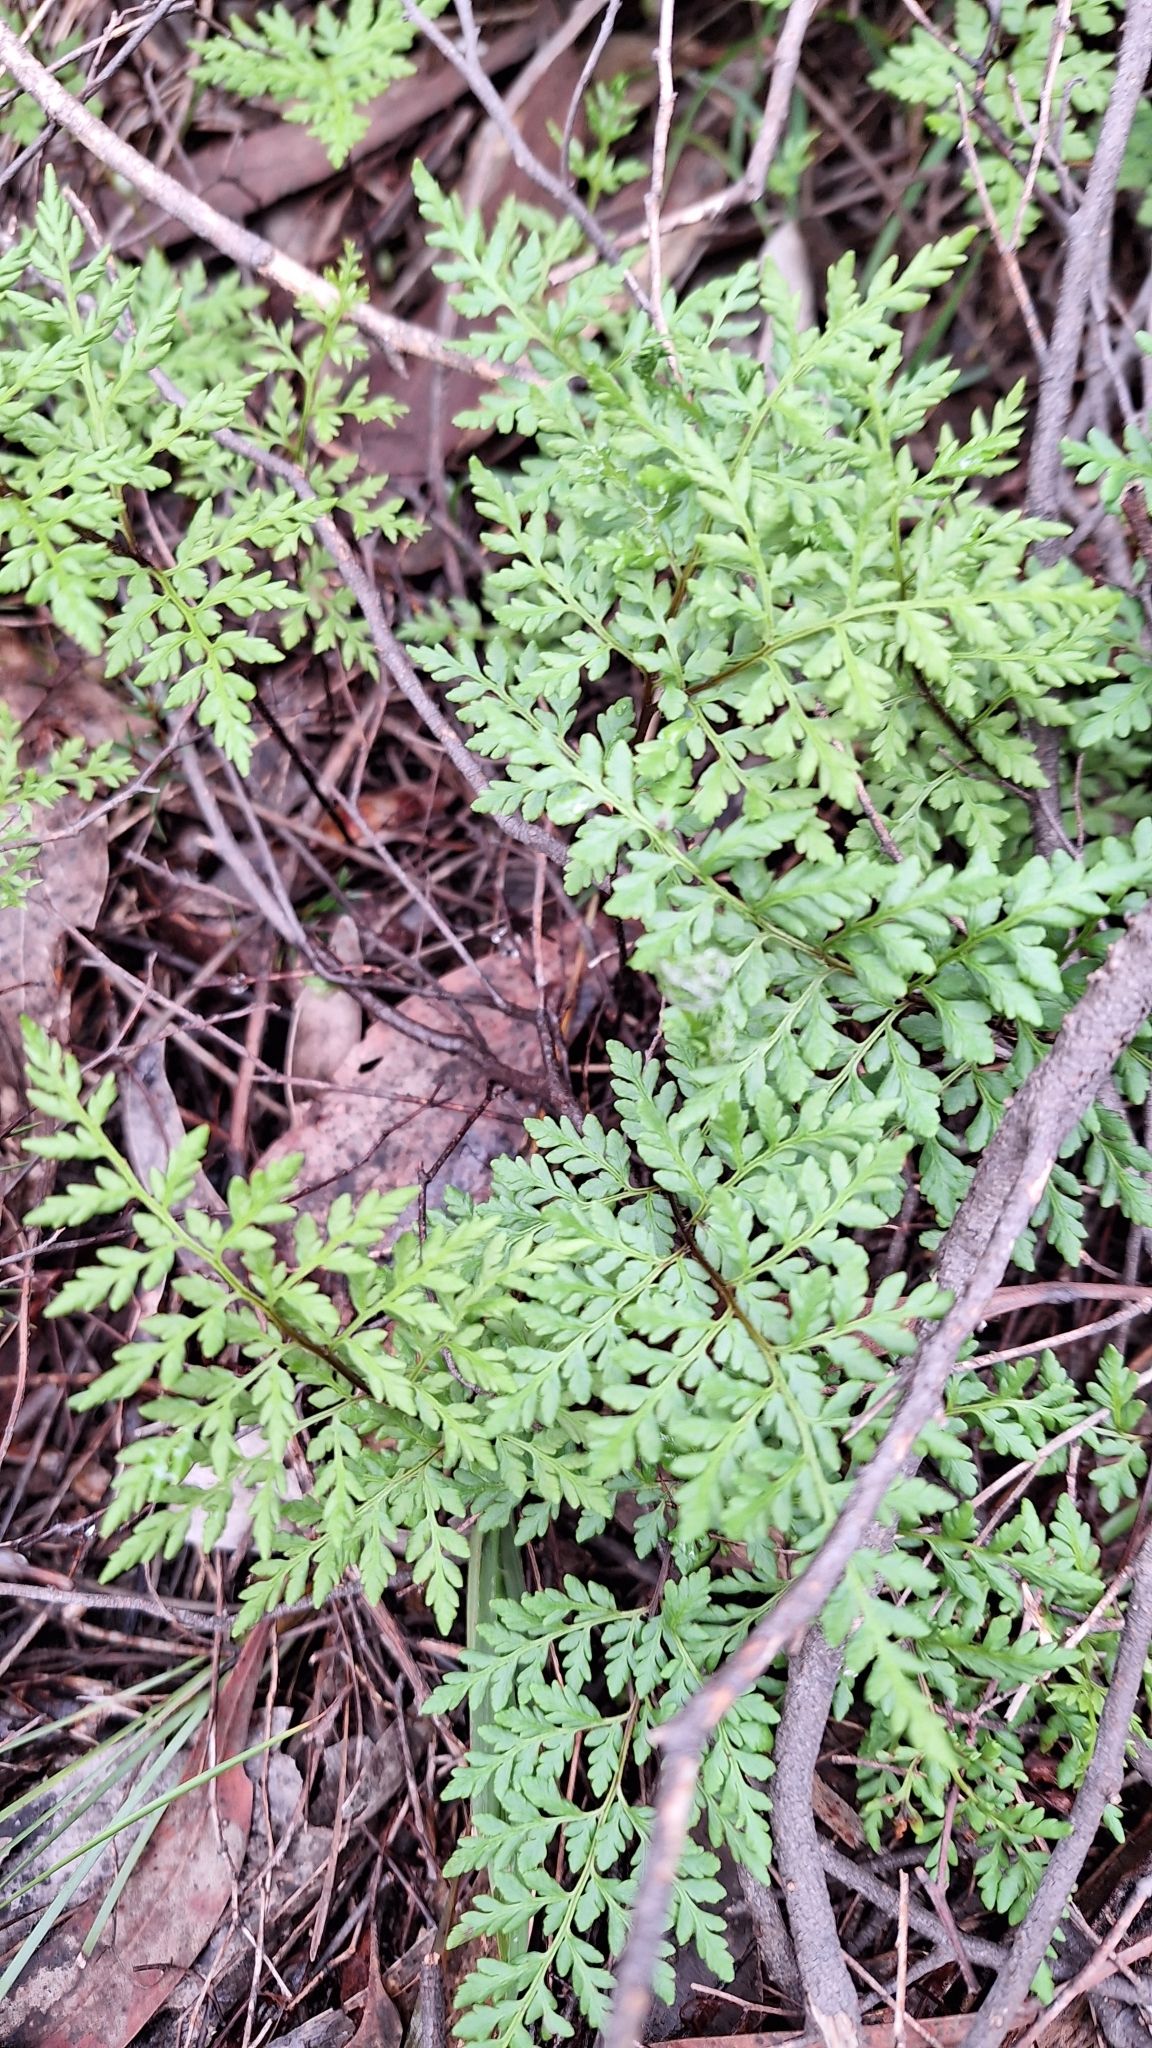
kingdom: Plantae
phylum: Tracheophyta
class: Polypodiopsida
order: Polypodiales
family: Pteridaceae
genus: Cheilanthes
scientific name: Cheilanthes austrotenuifolia
